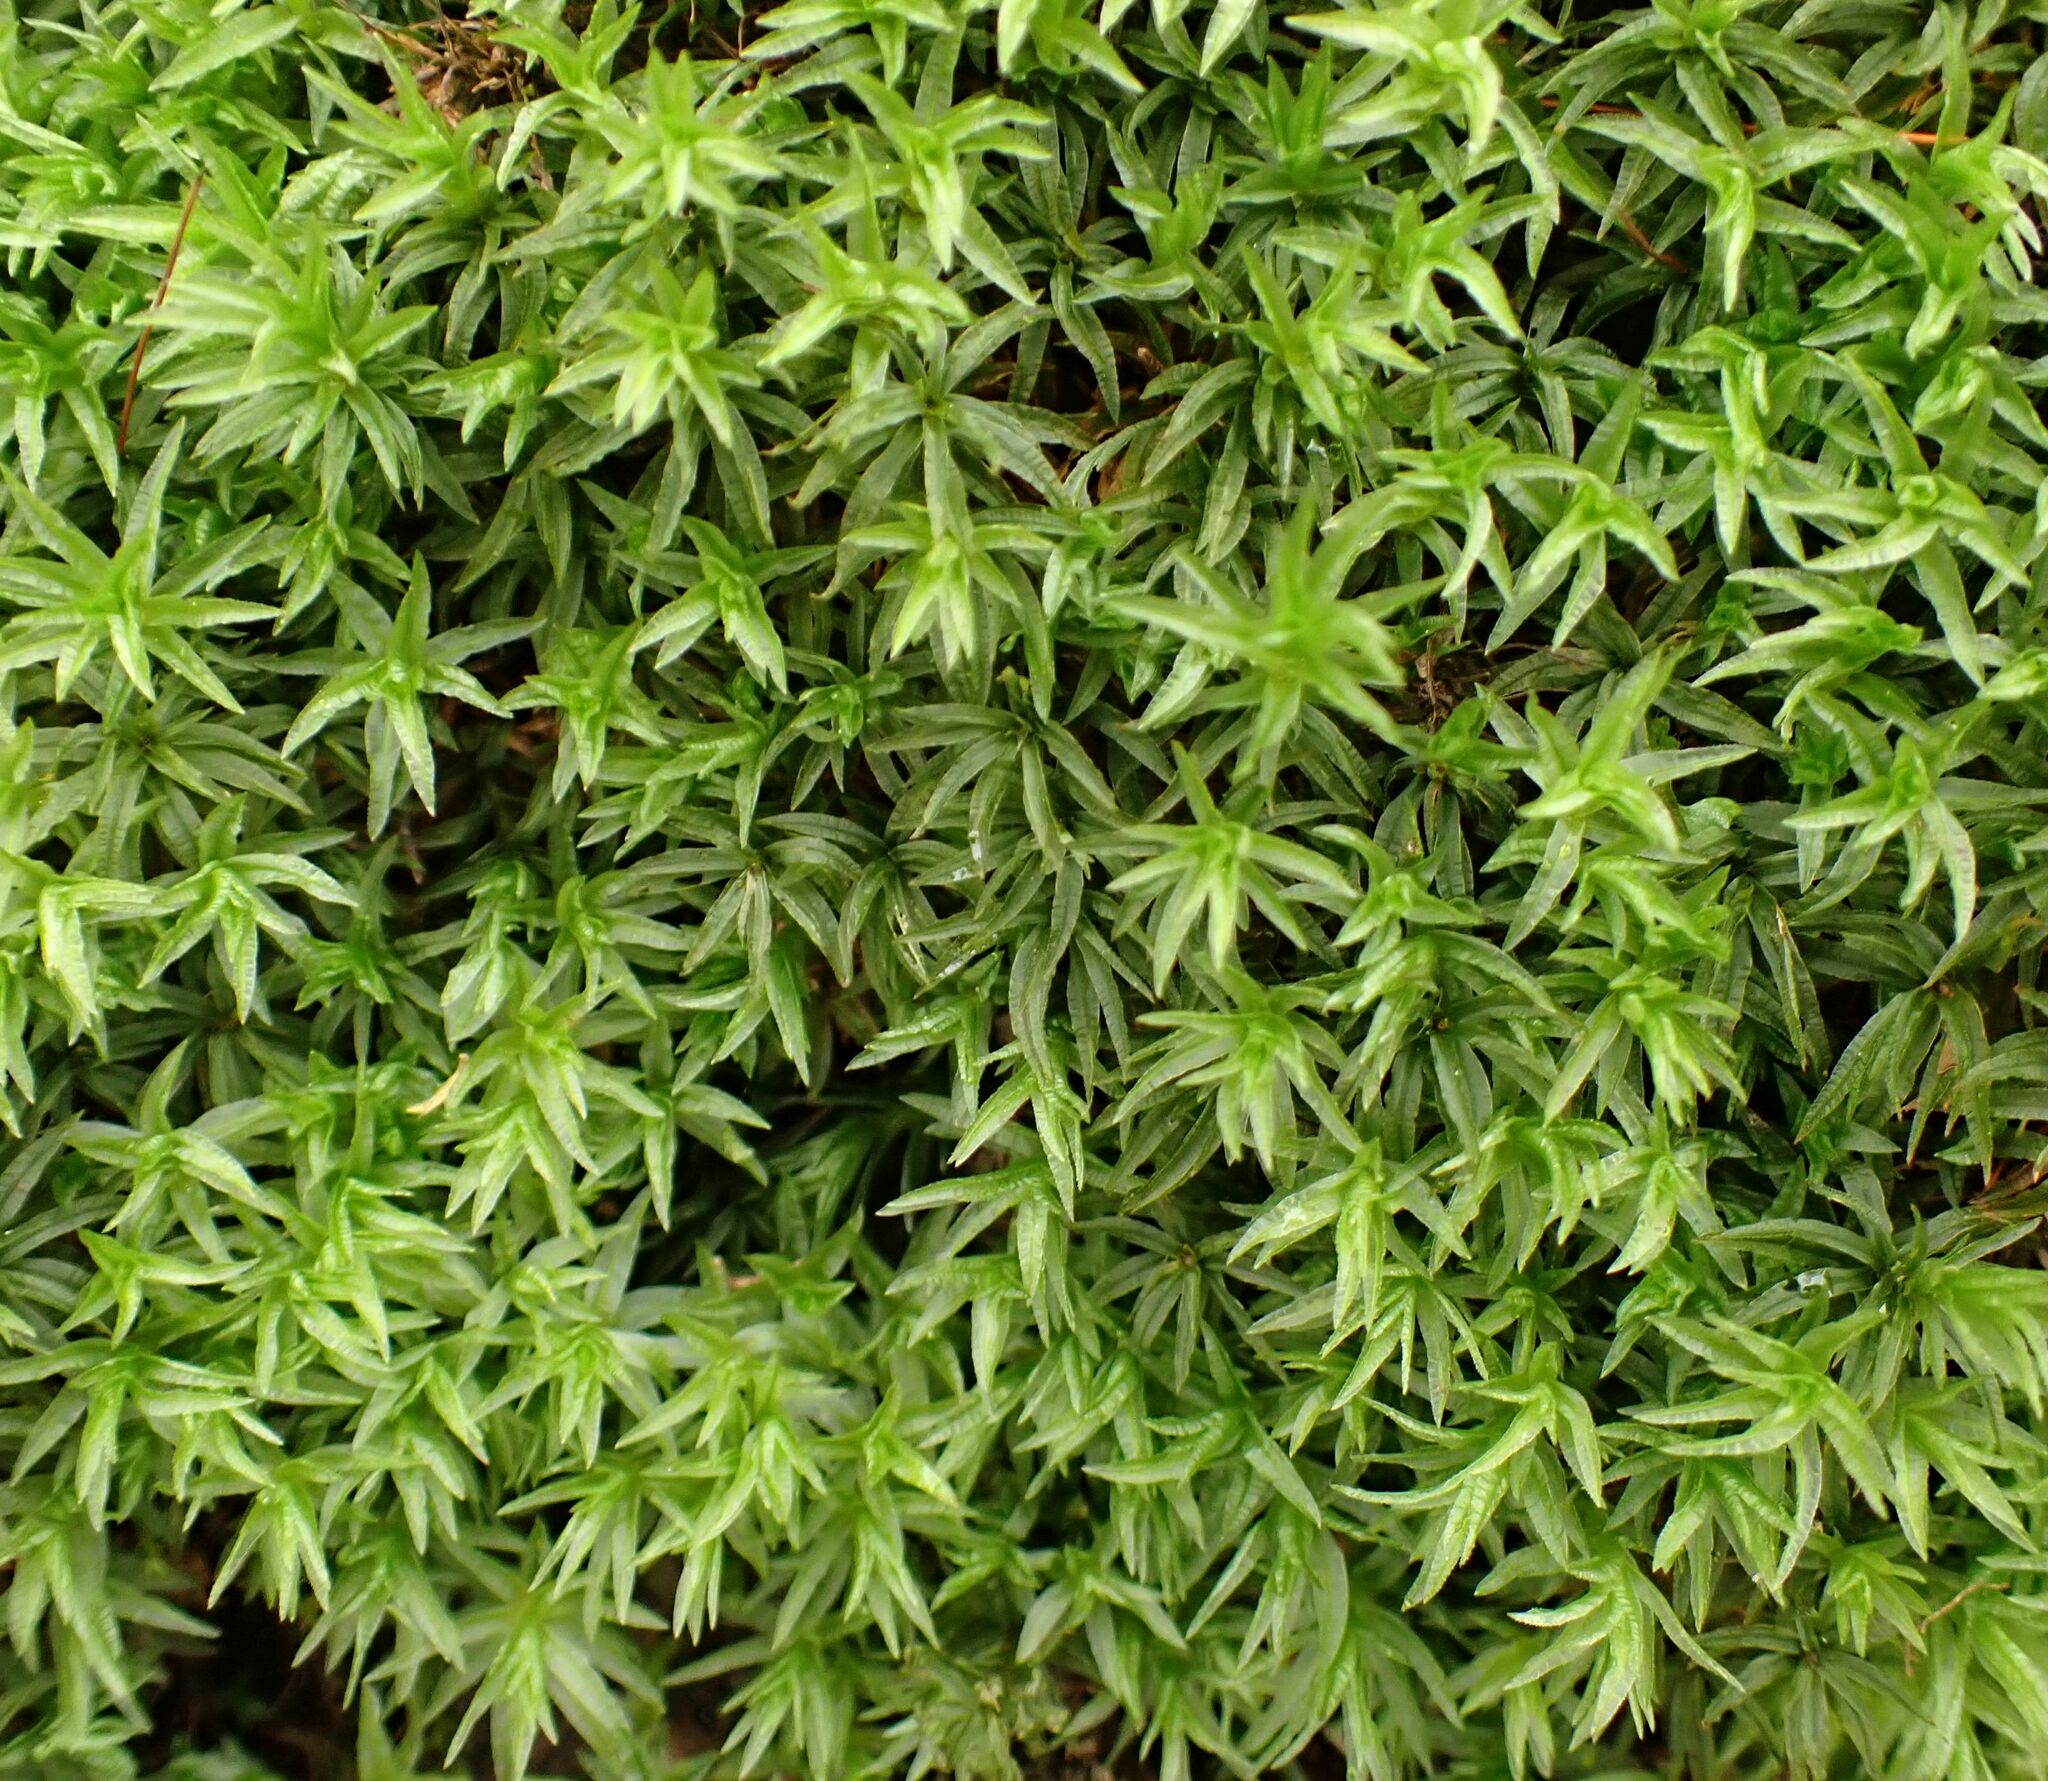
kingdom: Plantae
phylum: Bryophyta
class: Polytrichopsida
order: Polytrichales
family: Polytrichaceae
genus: Atrichum
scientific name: Atrichum undulatum
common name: Common smoothcap
